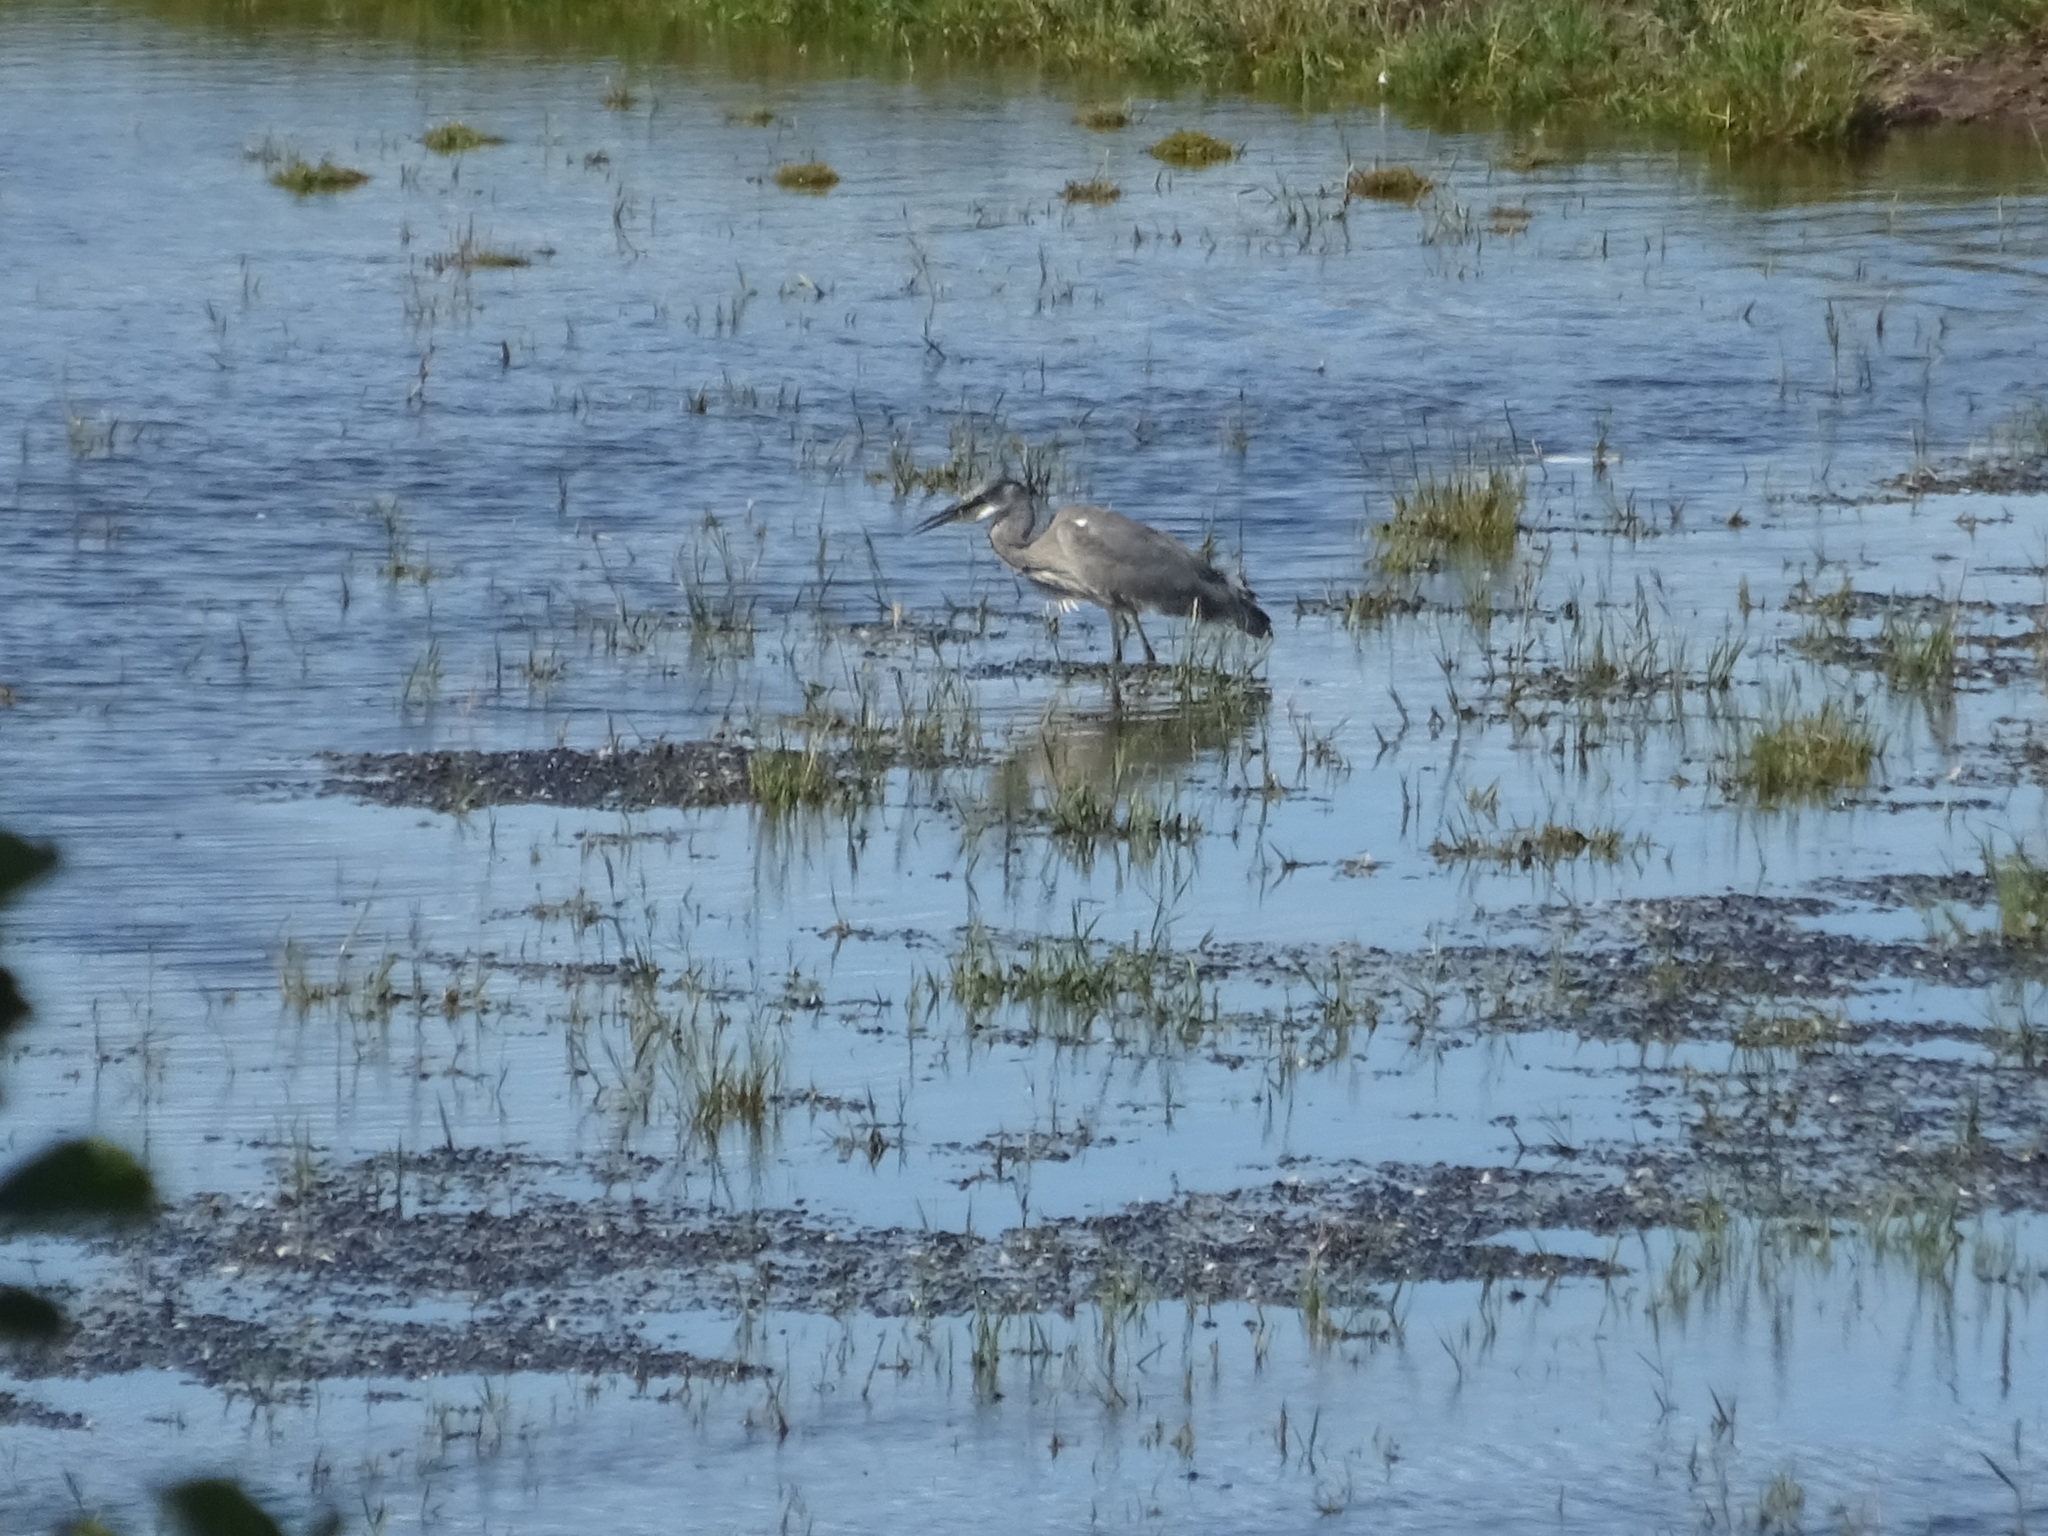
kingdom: Animalia
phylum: Chordata
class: Aves
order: Pelecaniformes
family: Ardeidae
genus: Ardea
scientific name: Ardea cinerea
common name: Grey heron
